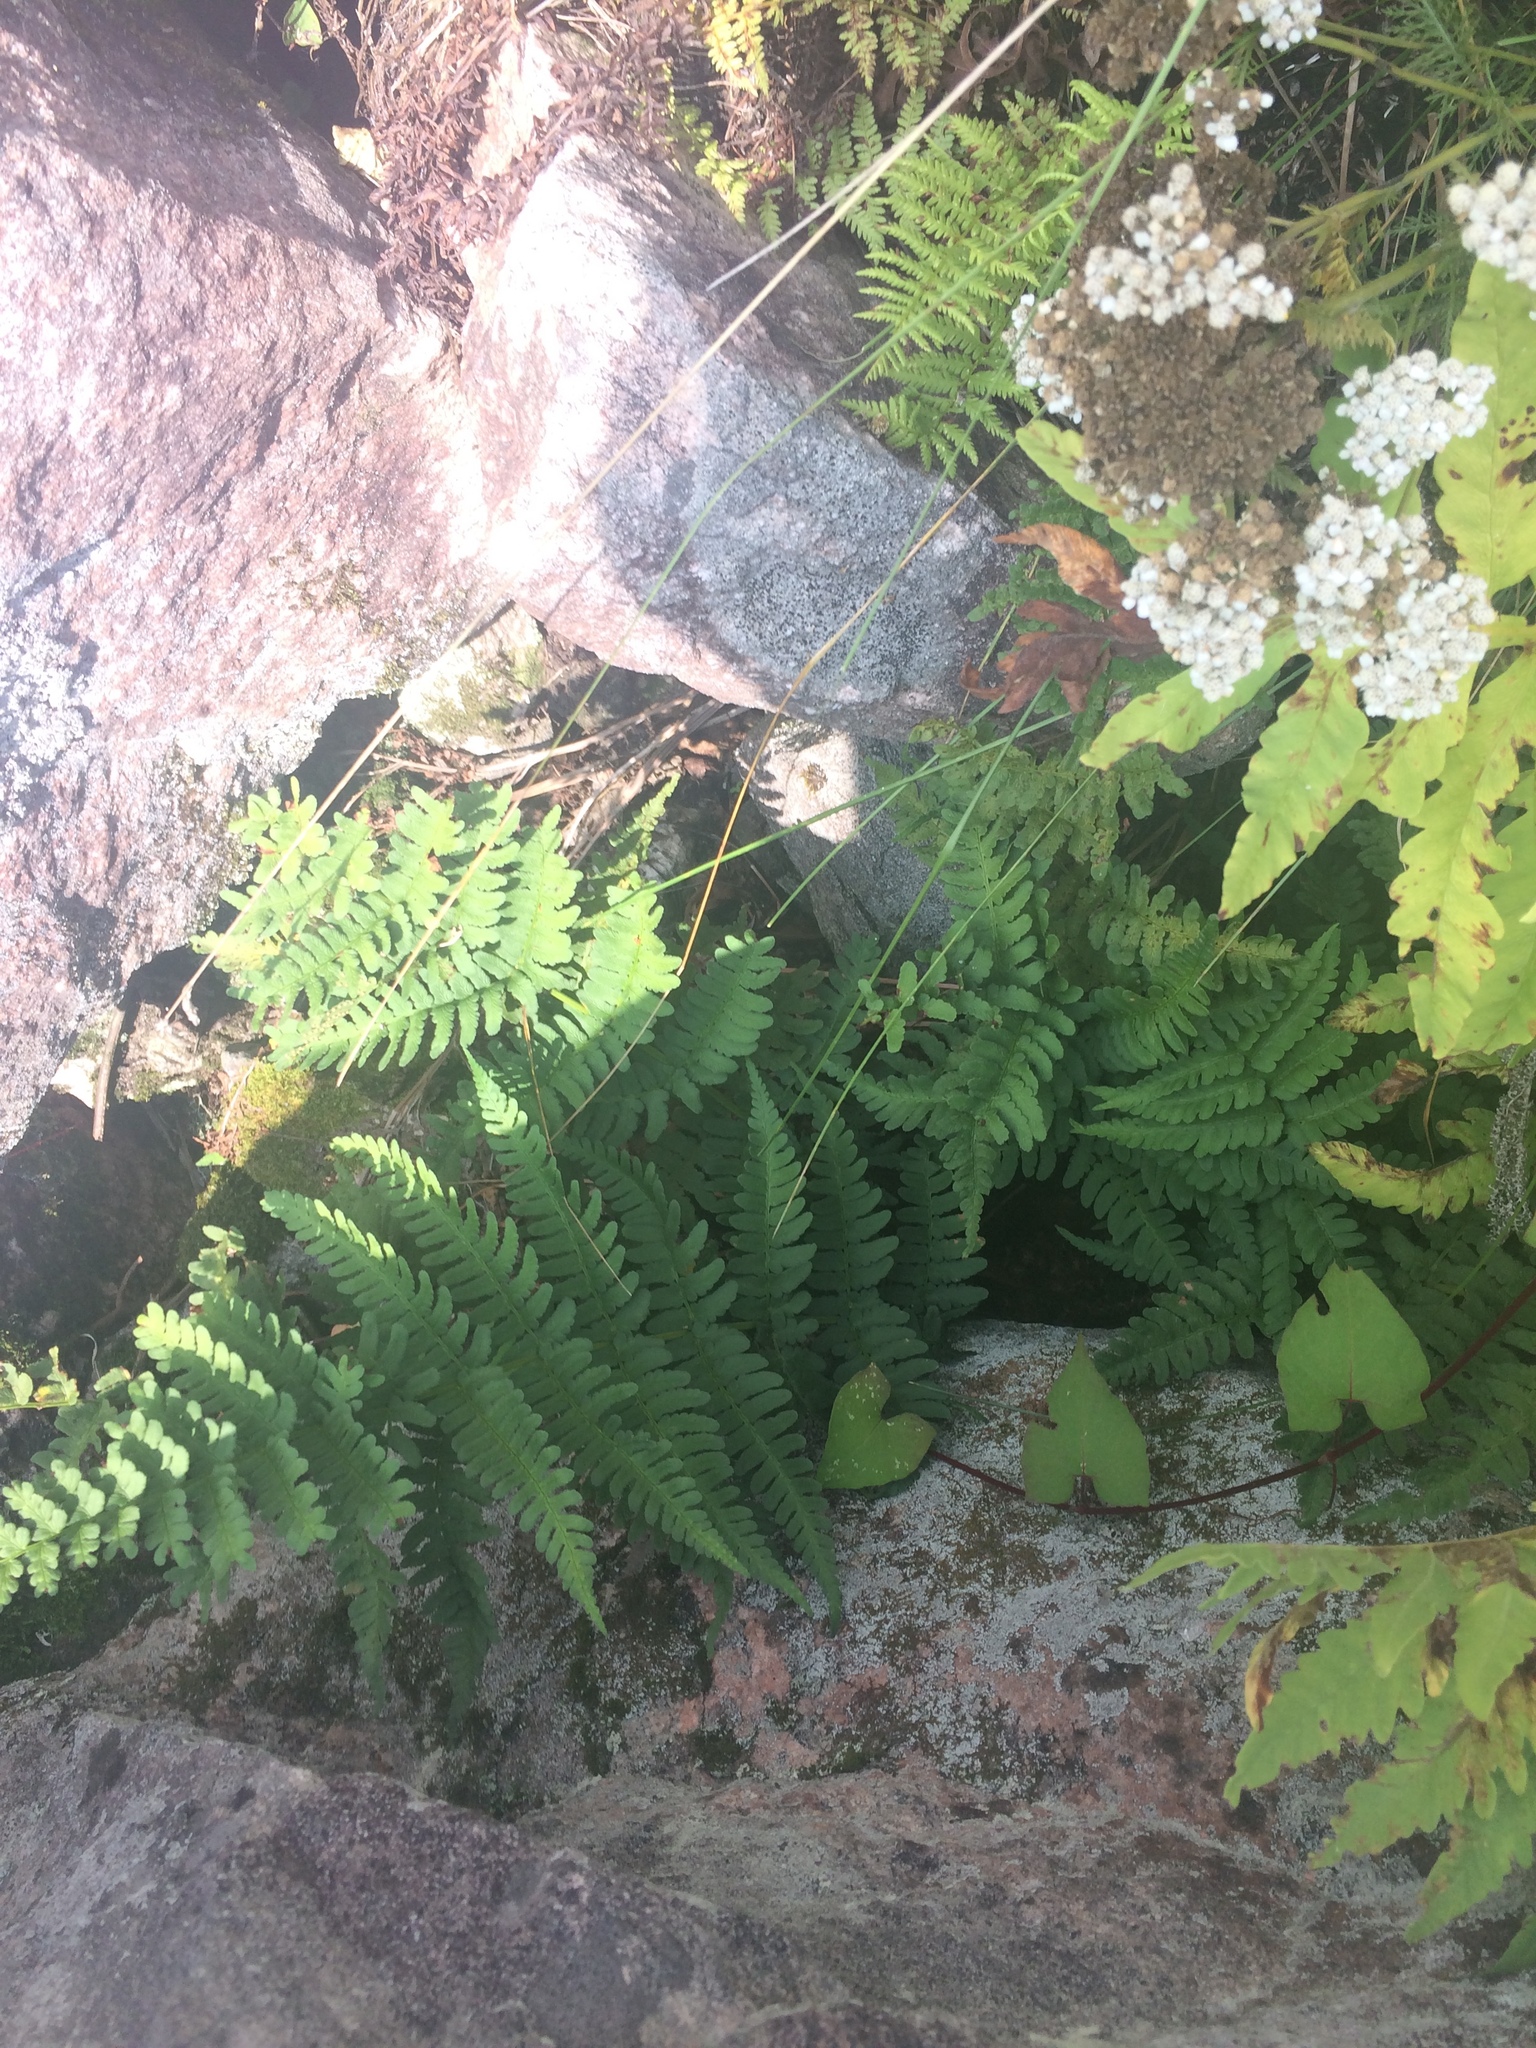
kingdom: Plantae
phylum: Tracheophyta
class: Polypodiopsida
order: Polypodiales
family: Dryopteridaceae
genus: Dryopteris
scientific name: Dryopteris marginalis
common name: Marginal wood fern
